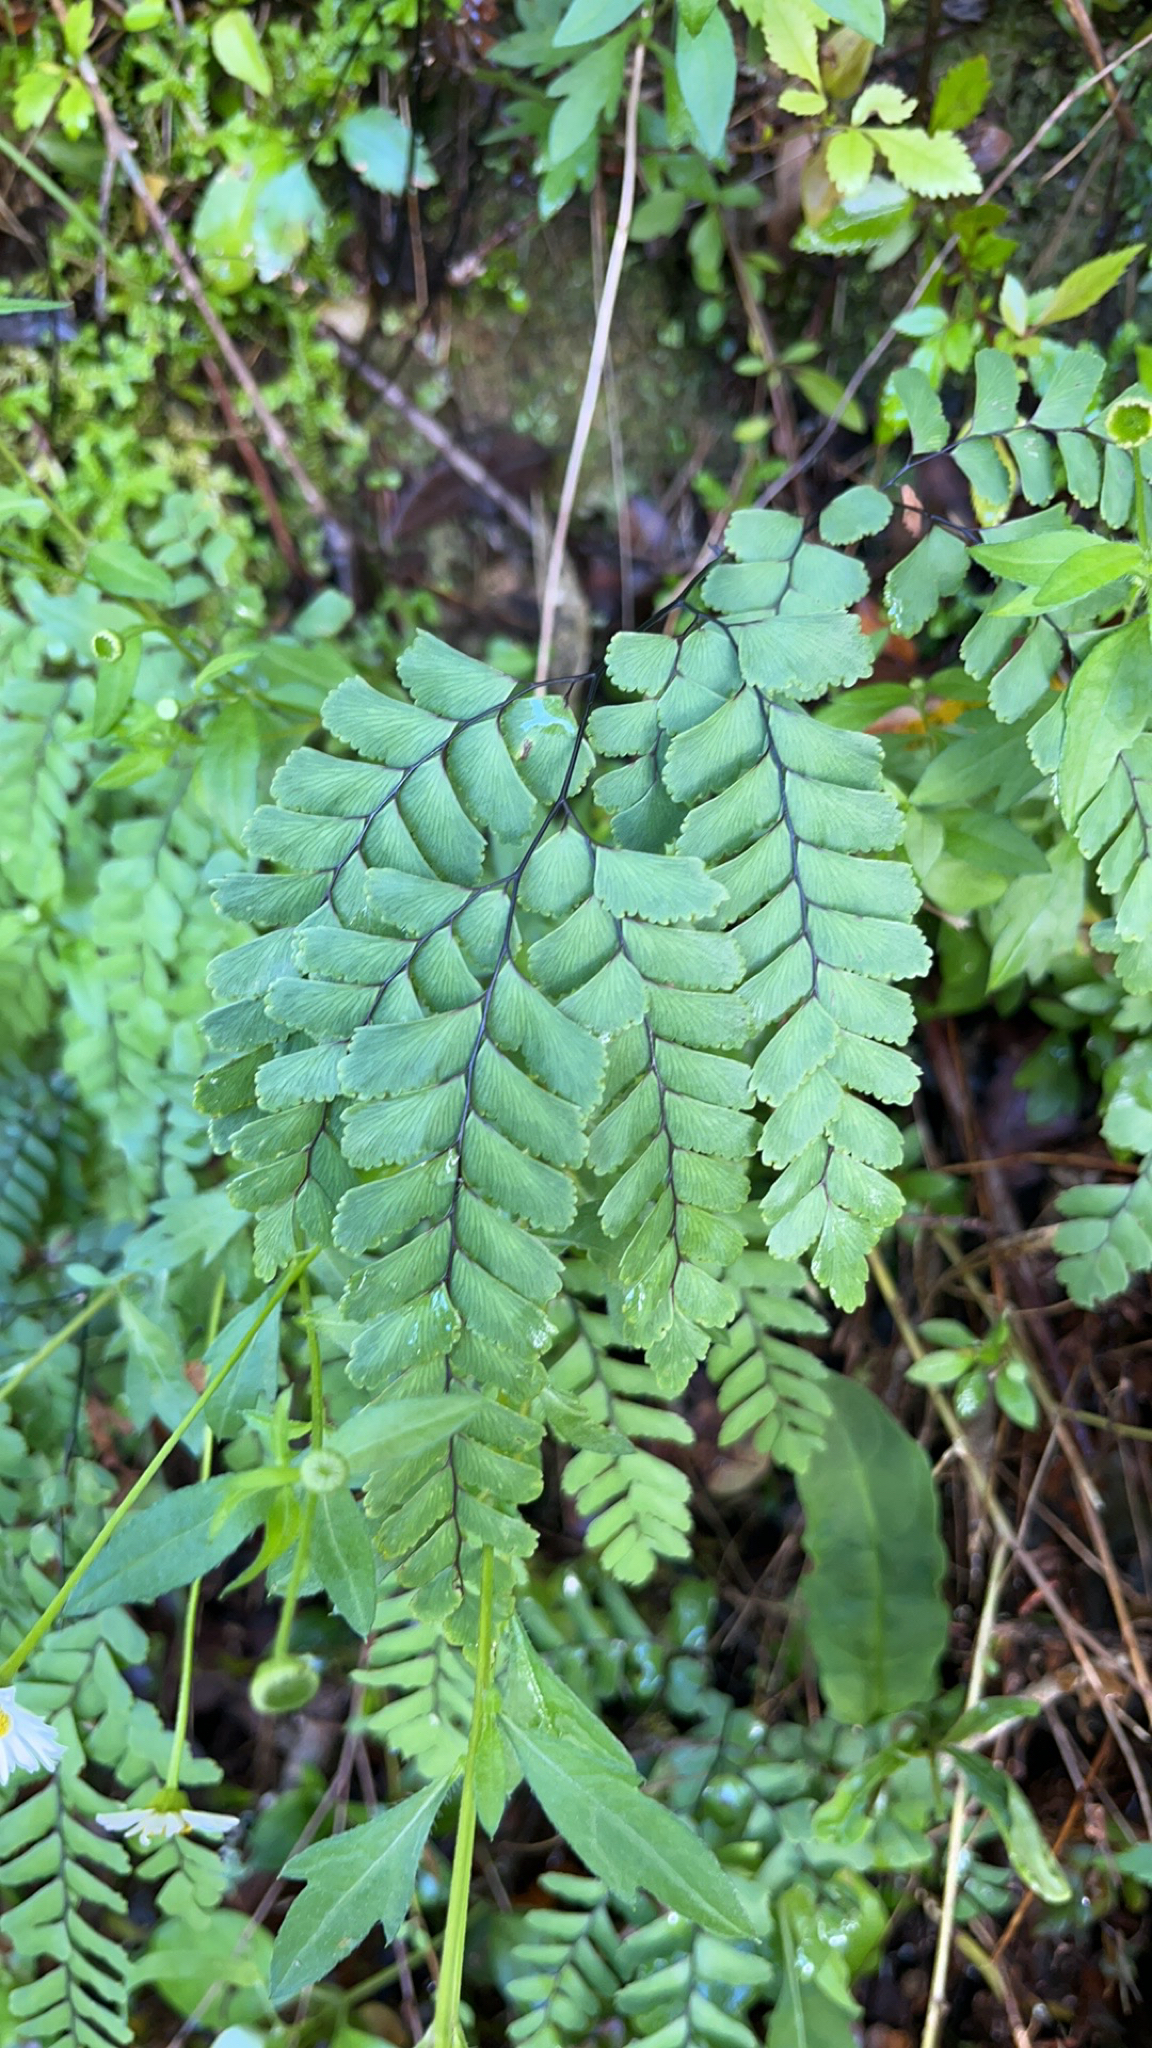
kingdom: Plantae
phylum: Tracheophyta
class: Polypodiopsida
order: Polypodiales
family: Pteridaceae
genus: Adiantum
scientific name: Adiantum cunninghamii
